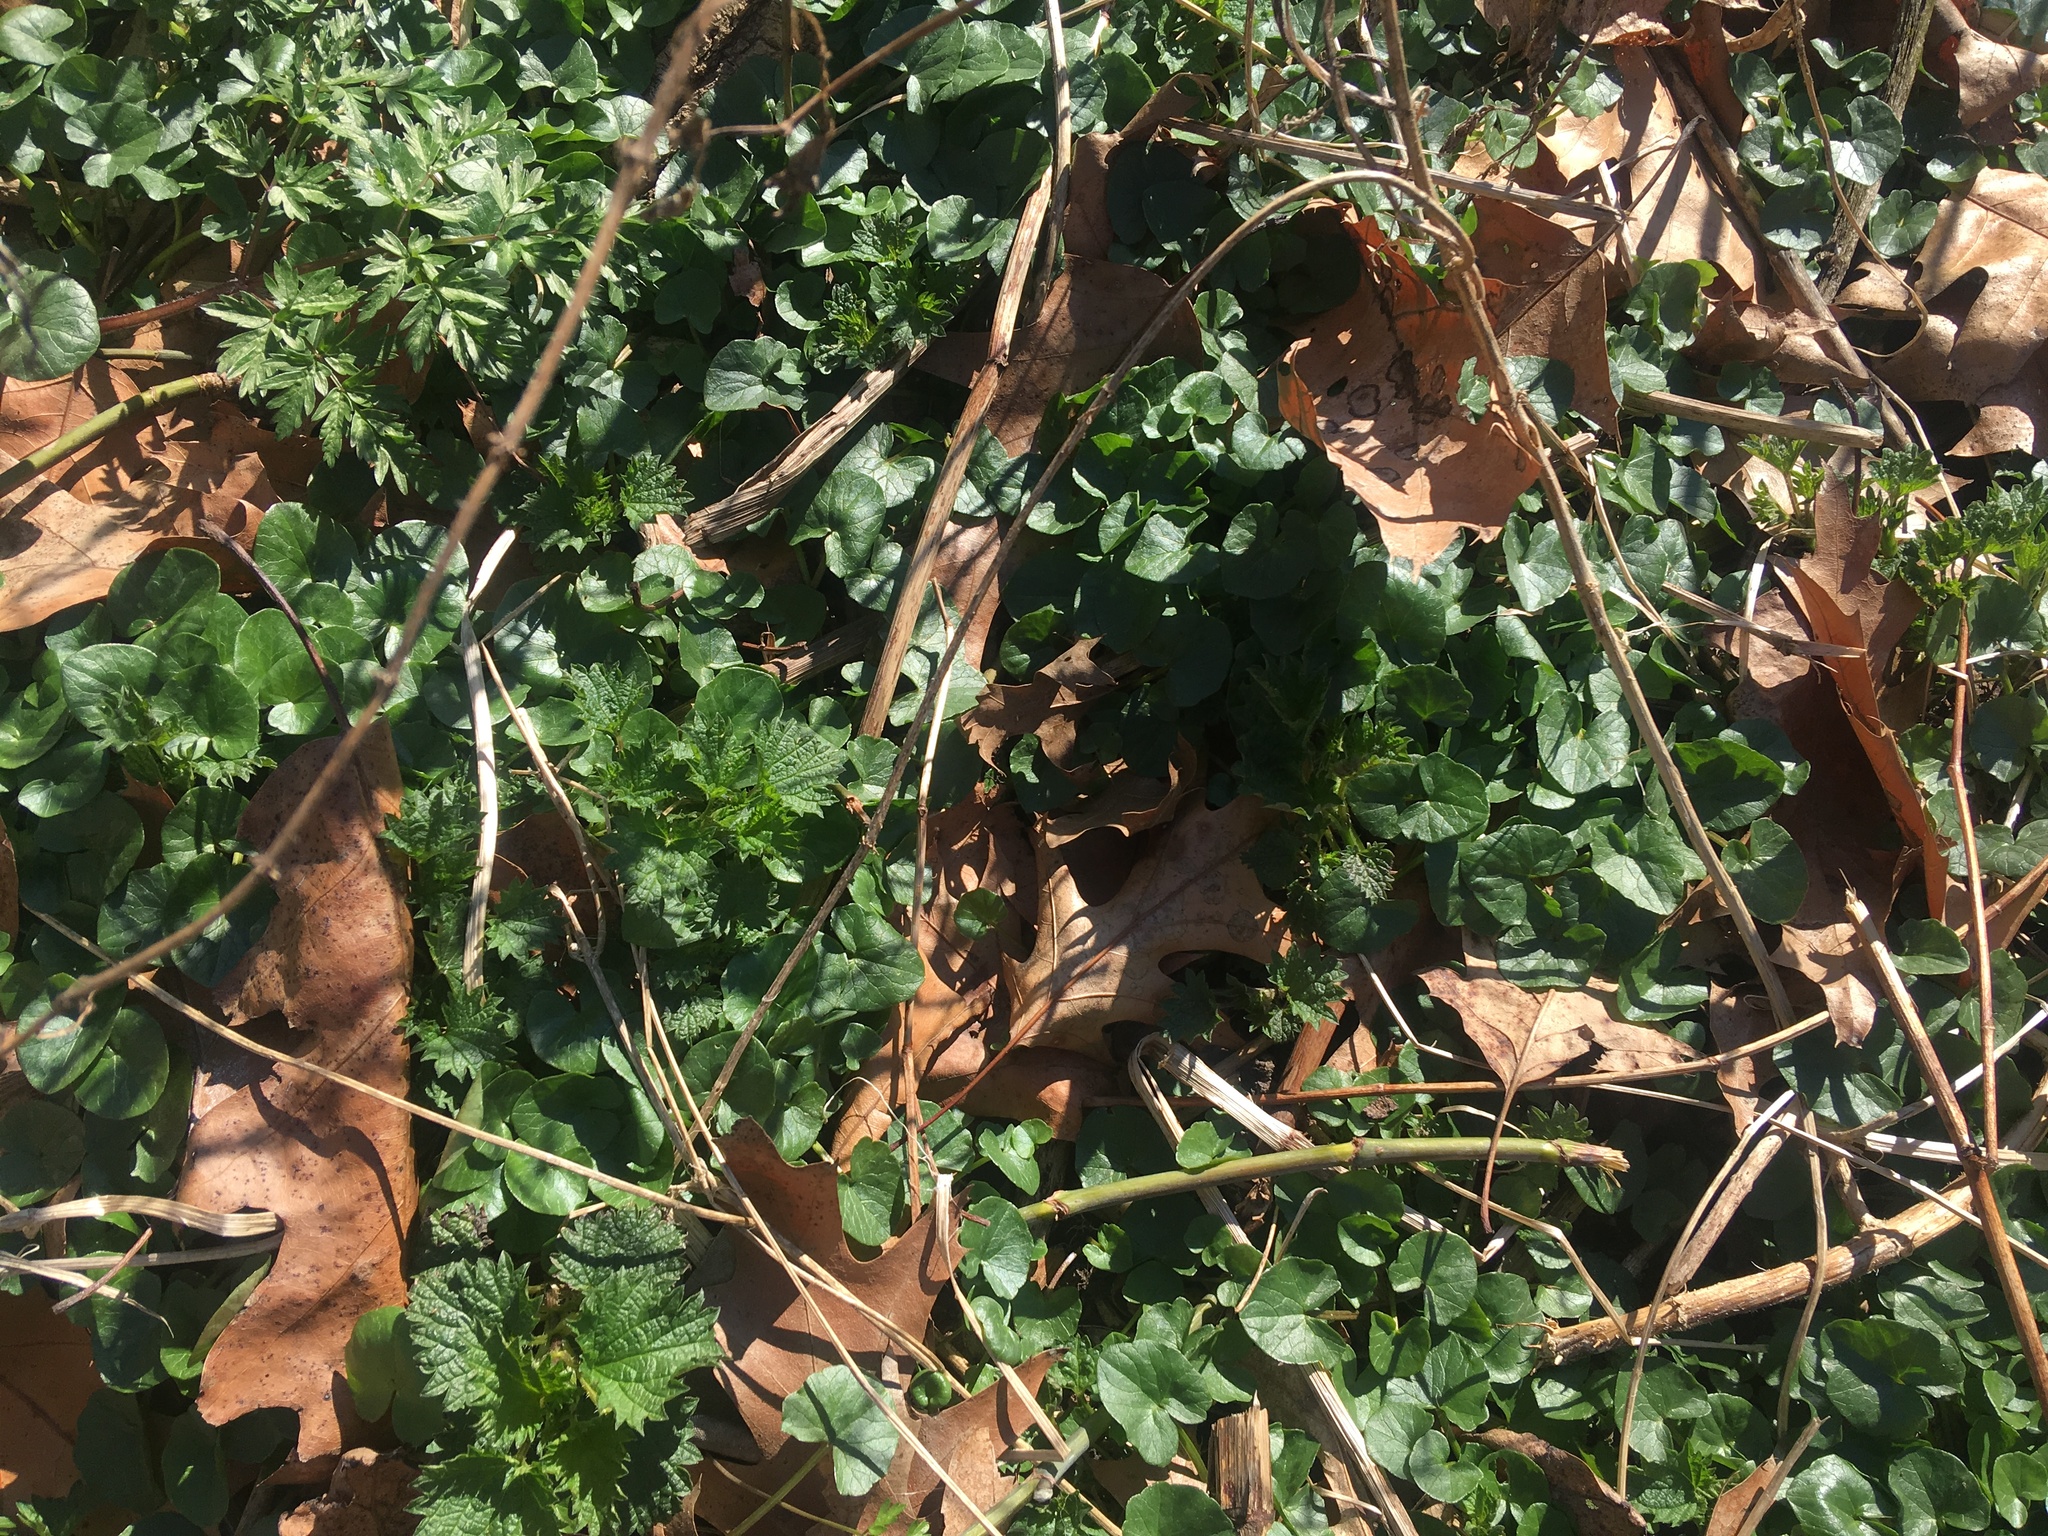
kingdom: Plantae
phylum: Tracheophyta
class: Magnoliopsida
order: Ranunculales
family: Ranunculaceae
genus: Ficaria
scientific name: Ficaria verna
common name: Lesser celandine
